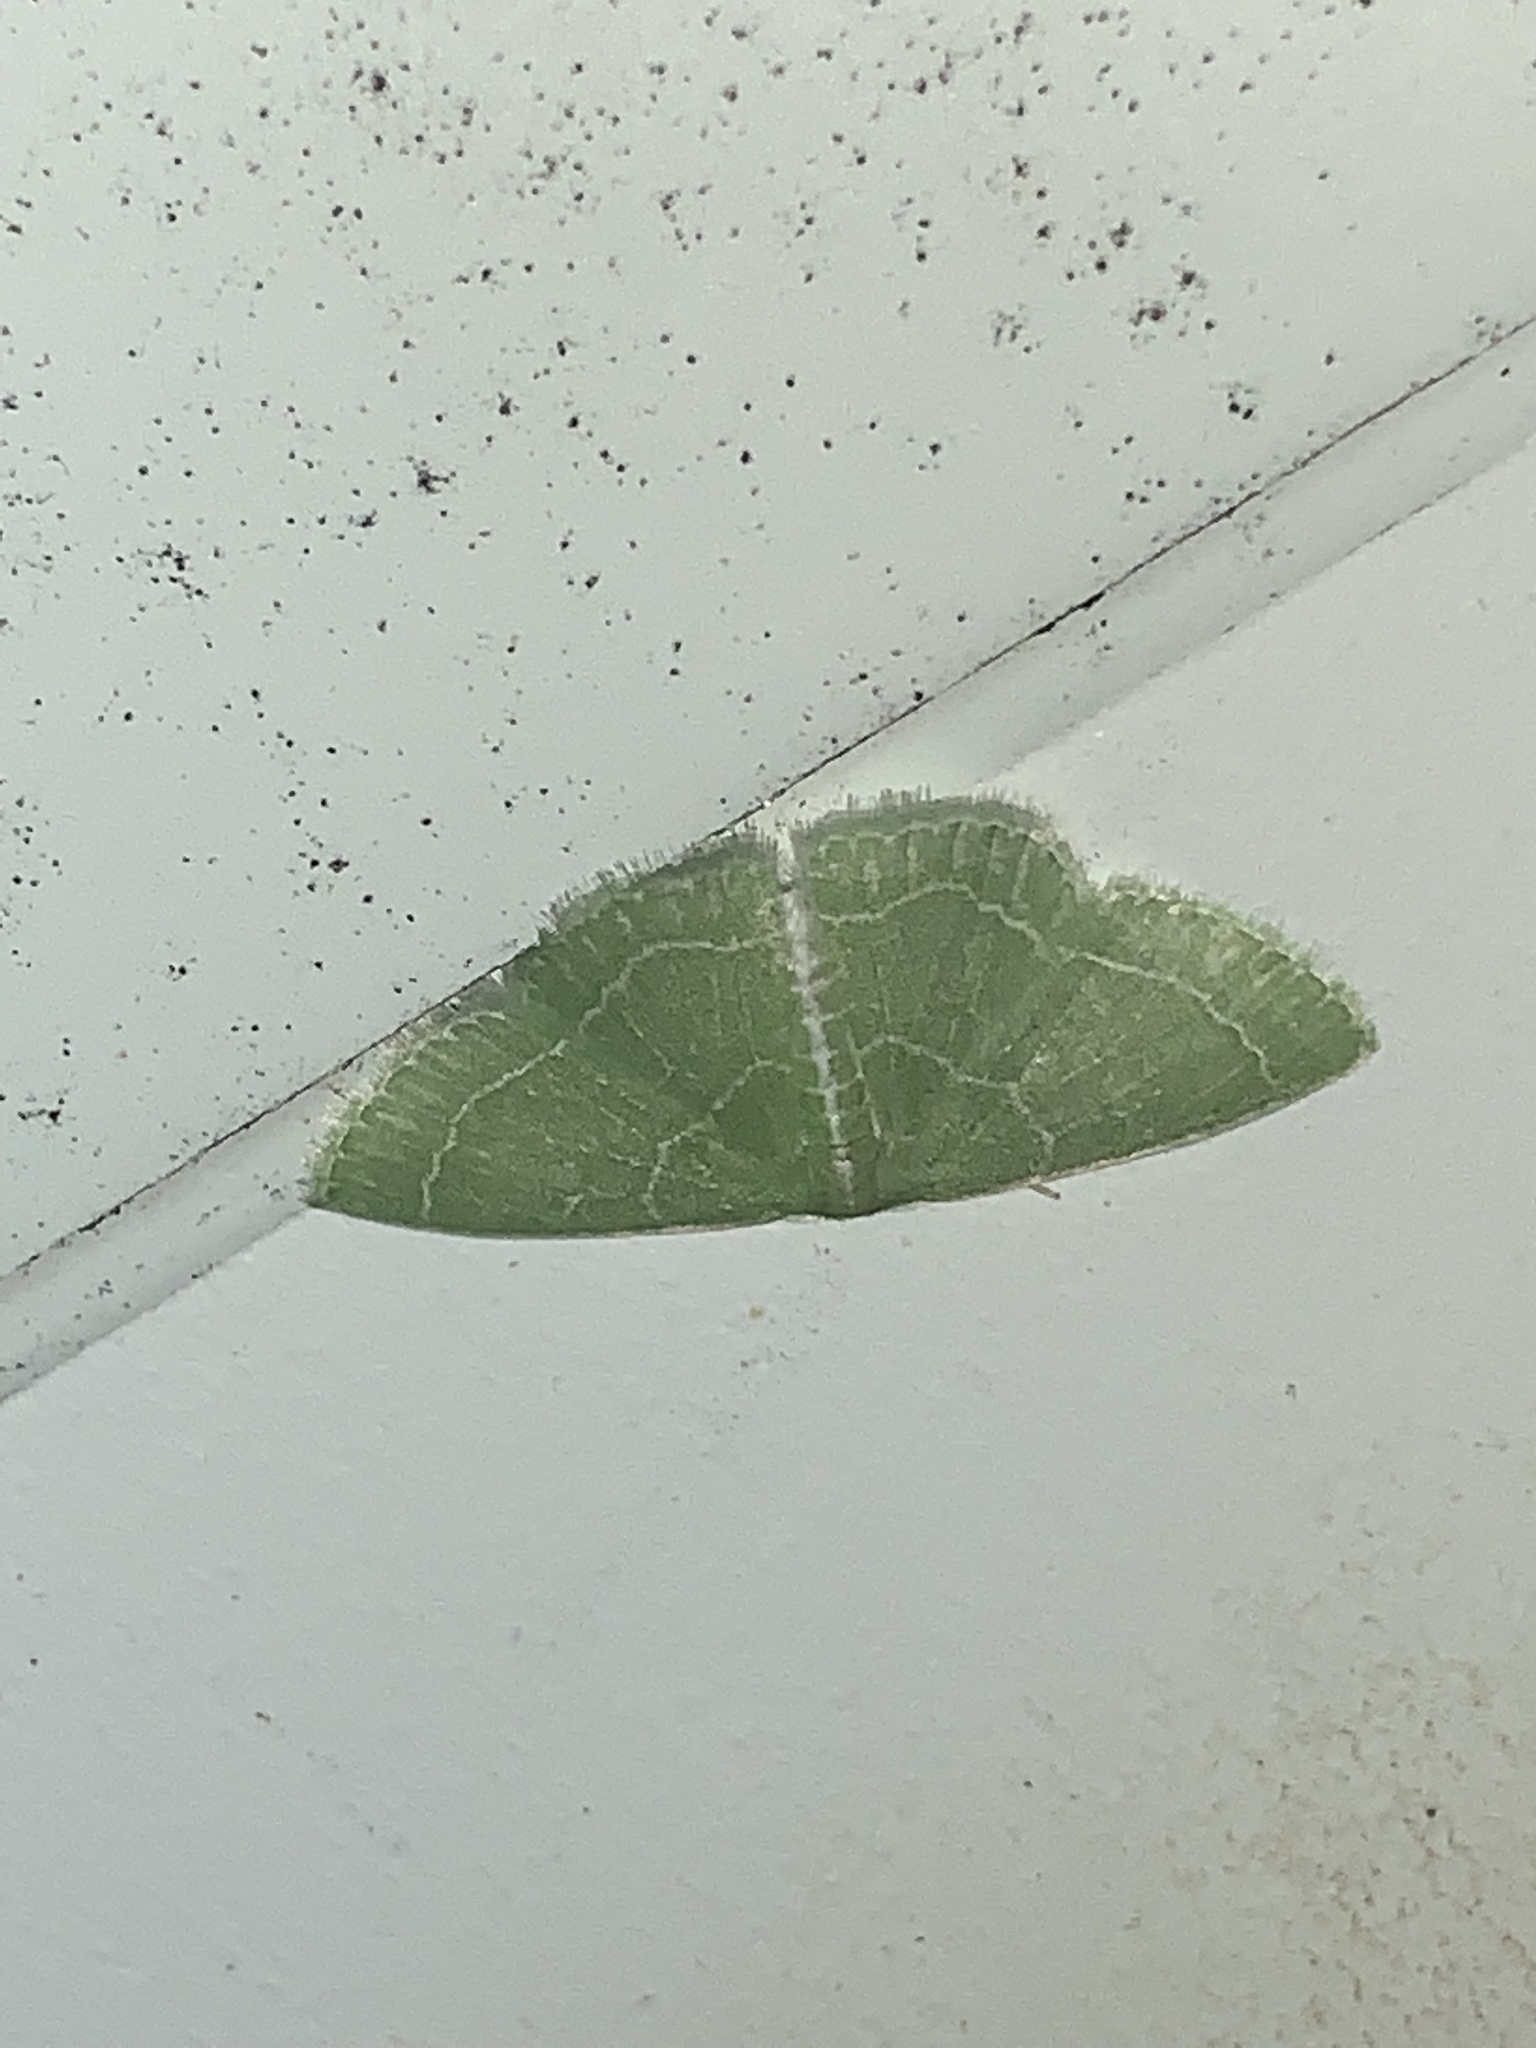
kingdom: Animalia
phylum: Arthropoda
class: Insecta
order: Lepidoptera
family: Geometridae
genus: Synchlora
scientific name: Synchlora aerata
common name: Wavy-lined emerald
